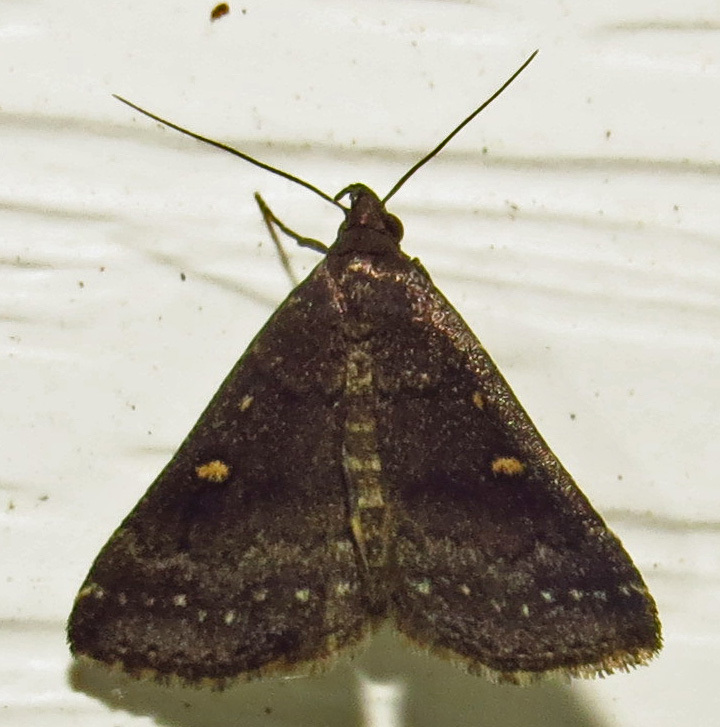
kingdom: Animalia
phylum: Arthropoda
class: Insecta
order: Lepidoptera
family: Erebidae
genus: Tetanolita
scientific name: Tetanolita mynesalis
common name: Smoky tetanolita moth
